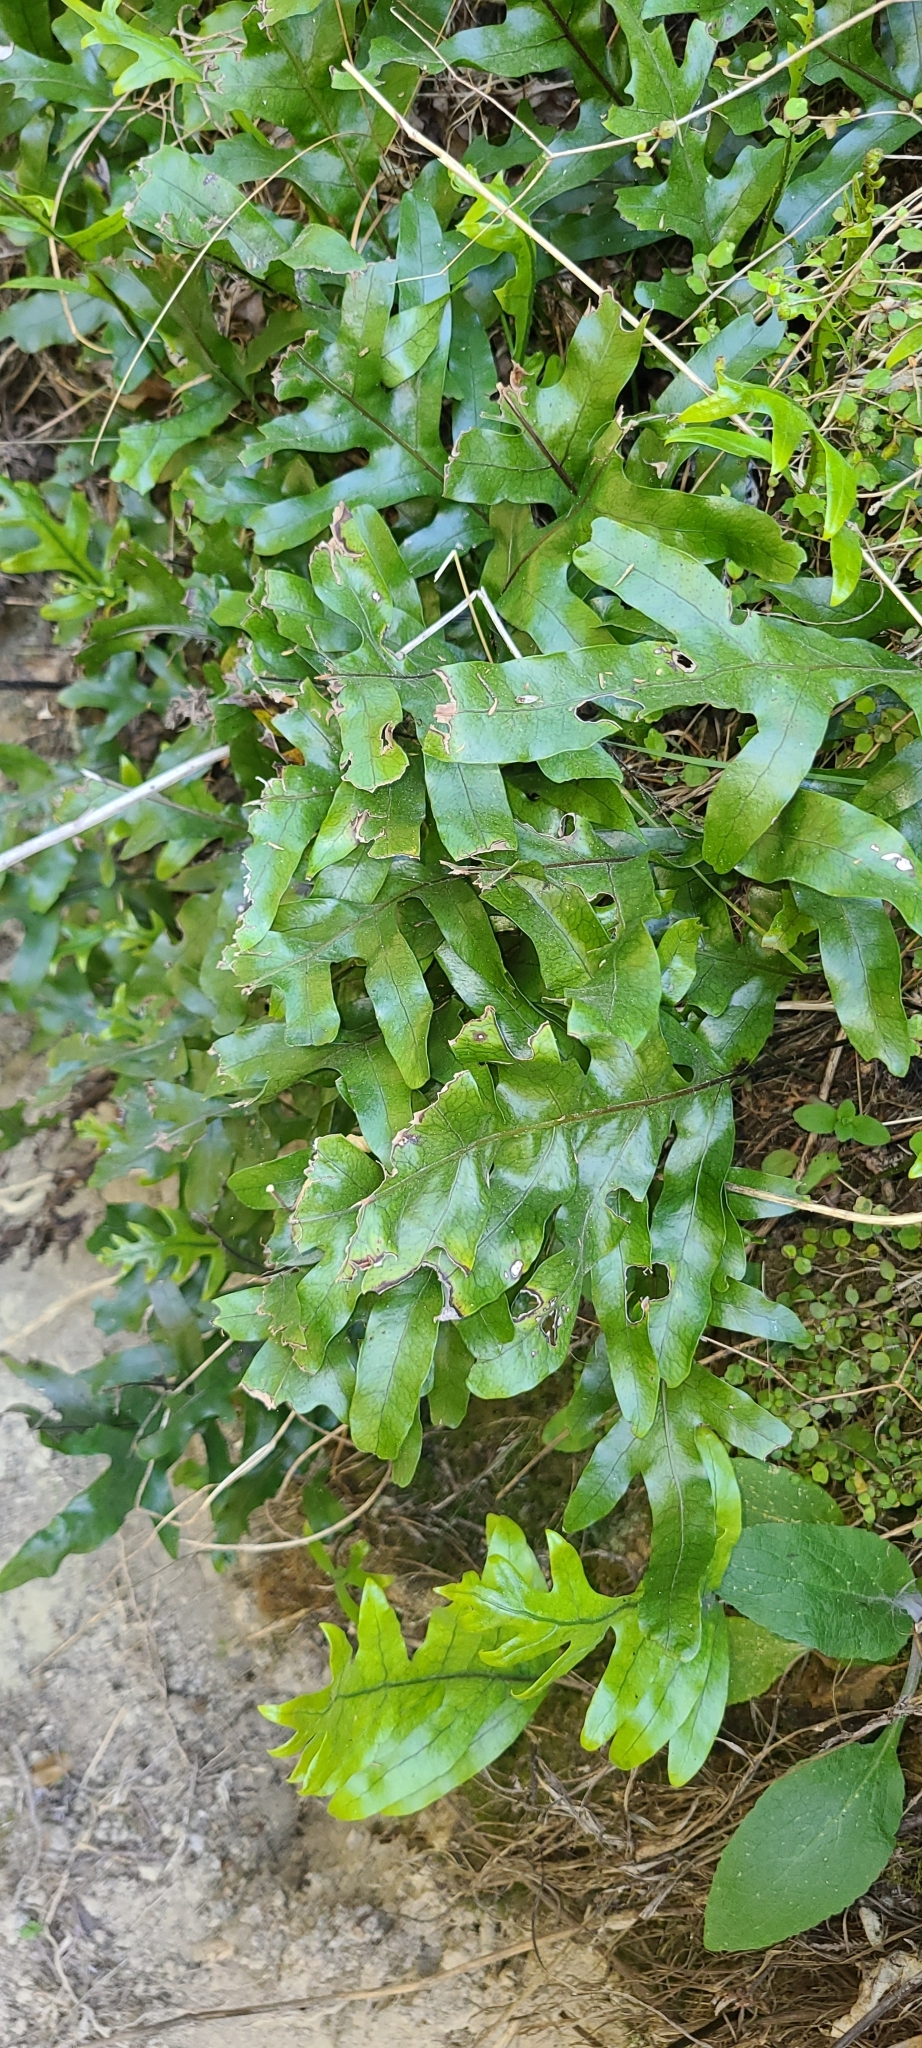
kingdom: Plantae
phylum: Tracheophyta
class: Polypodiopsida
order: Polypodiales
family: Polypodiaceae
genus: Lecanopteris
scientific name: Lecanopteris pustulata
